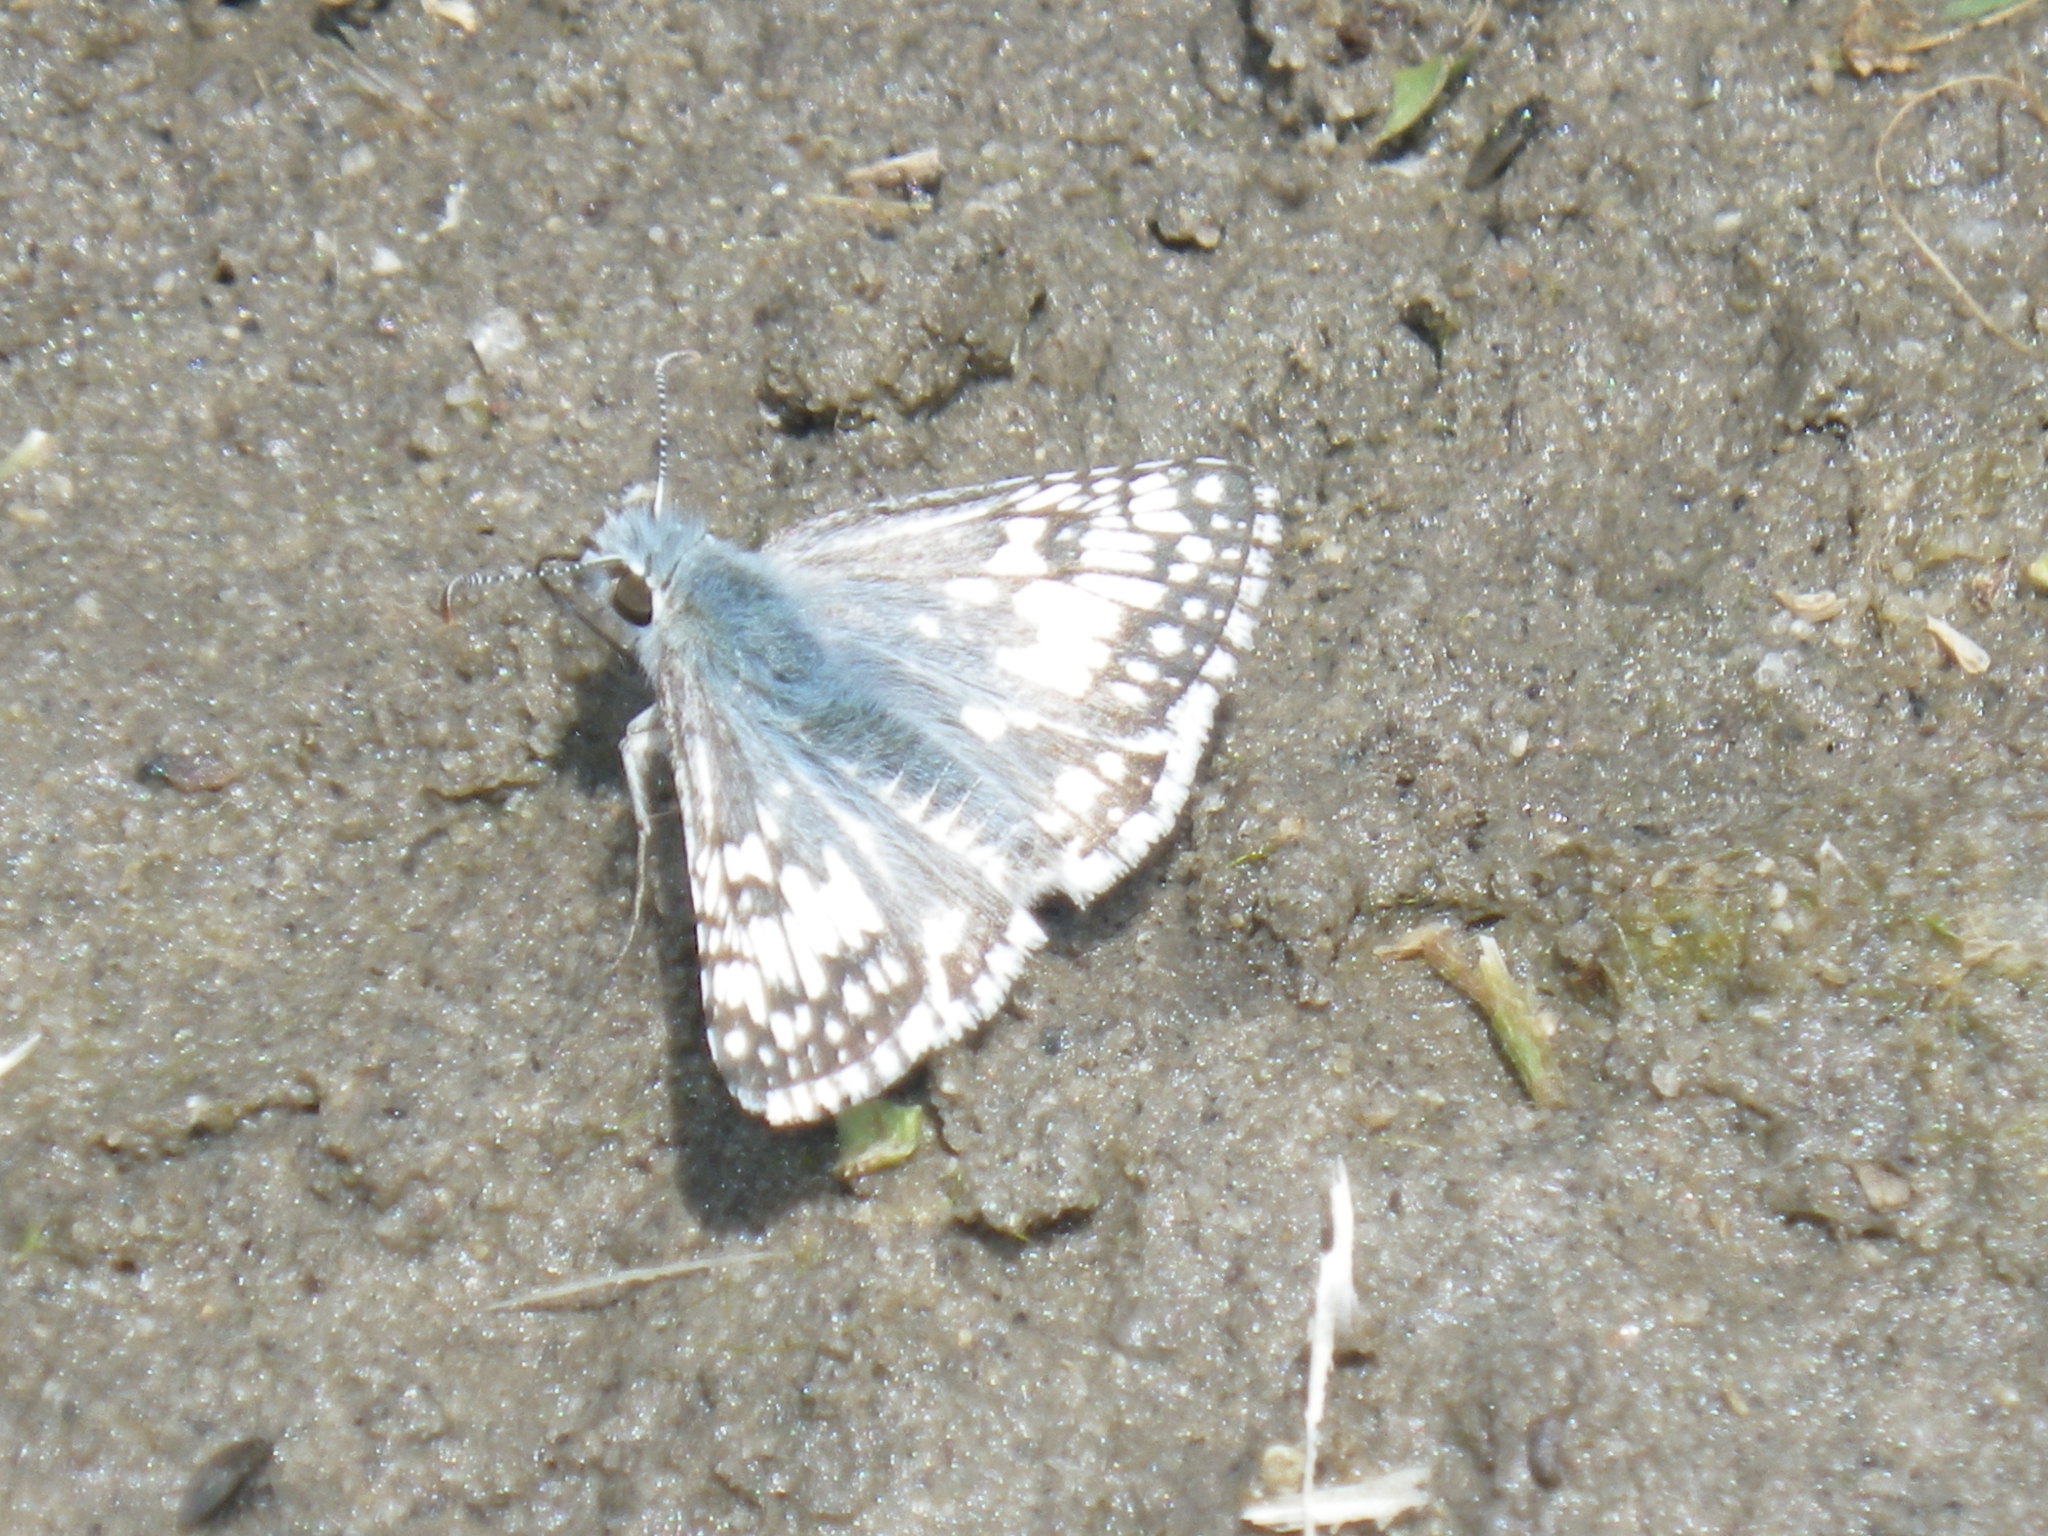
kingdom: Animalia
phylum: Arthropoda
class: Insecta
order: Lepidoptera
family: Hesperiidae
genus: Burnsius
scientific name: Burnsius communis
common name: Common checkered-skipper
